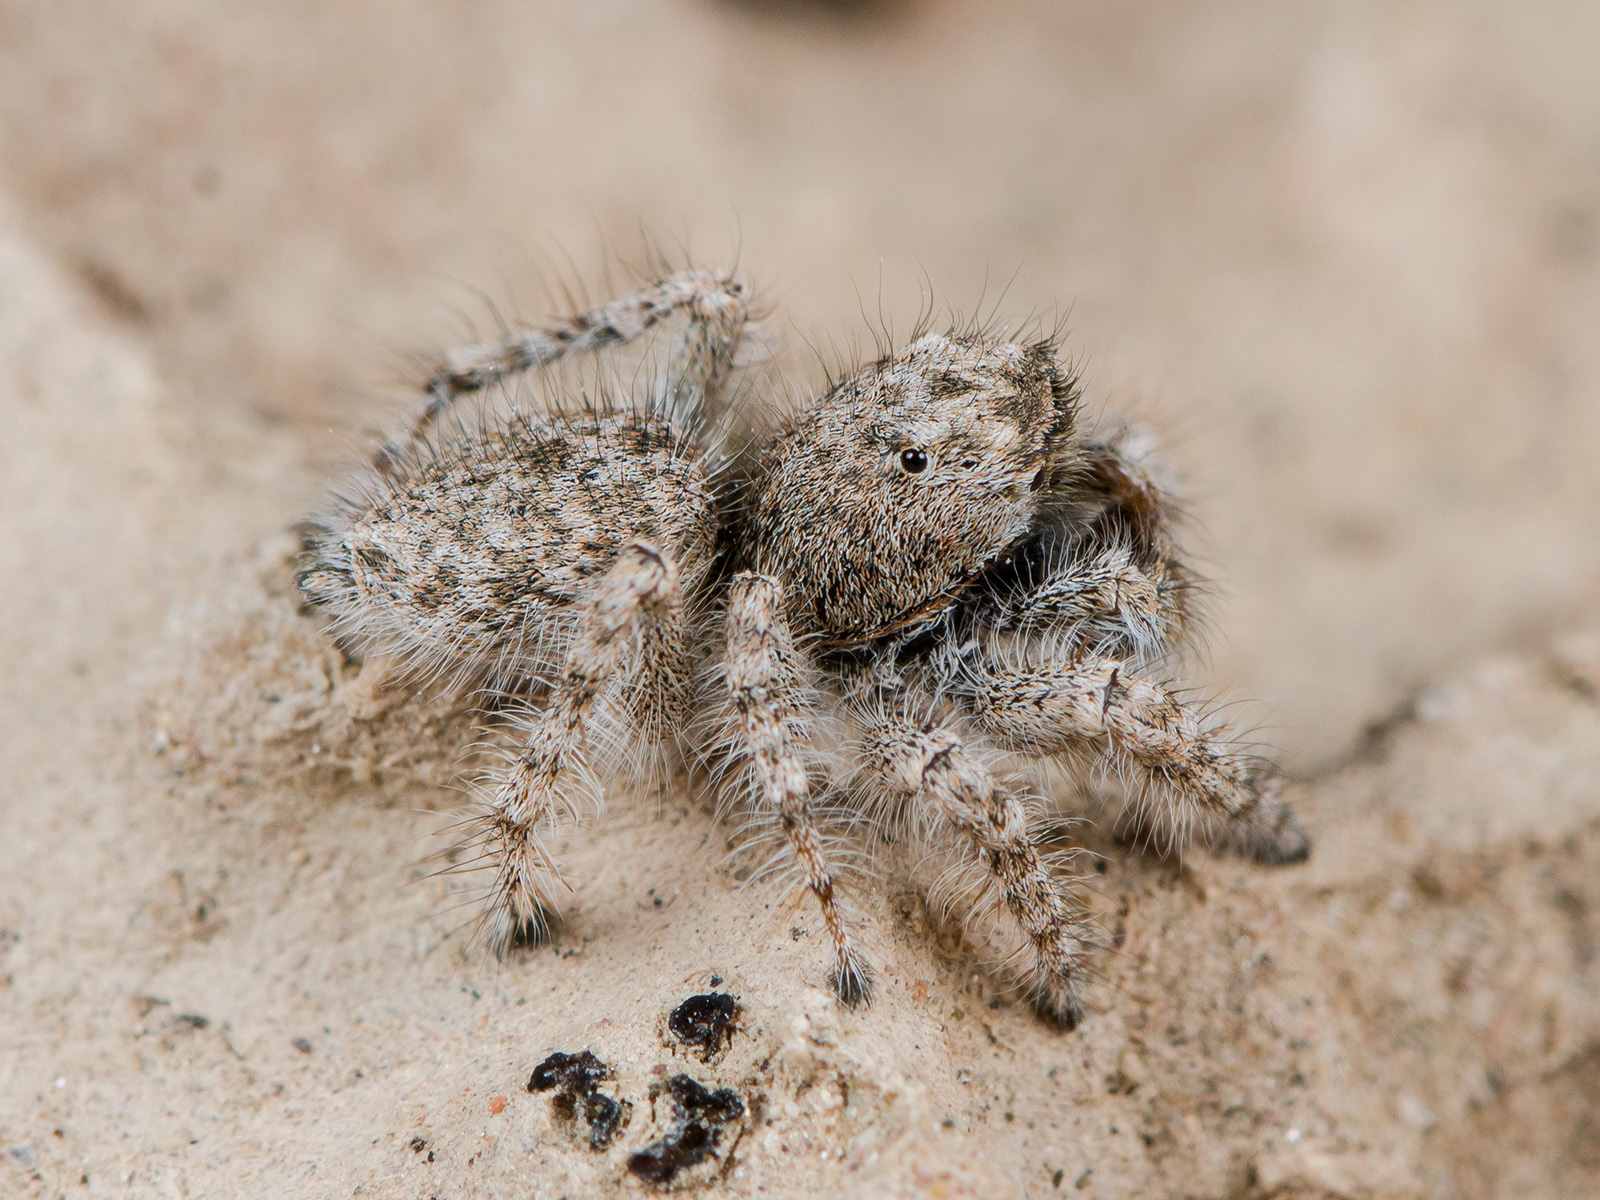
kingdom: Animalia
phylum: Arthropoda
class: Arachnida
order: Araneae
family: Salticidae
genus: Marusyllus
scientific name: Marusyllus coreanus
